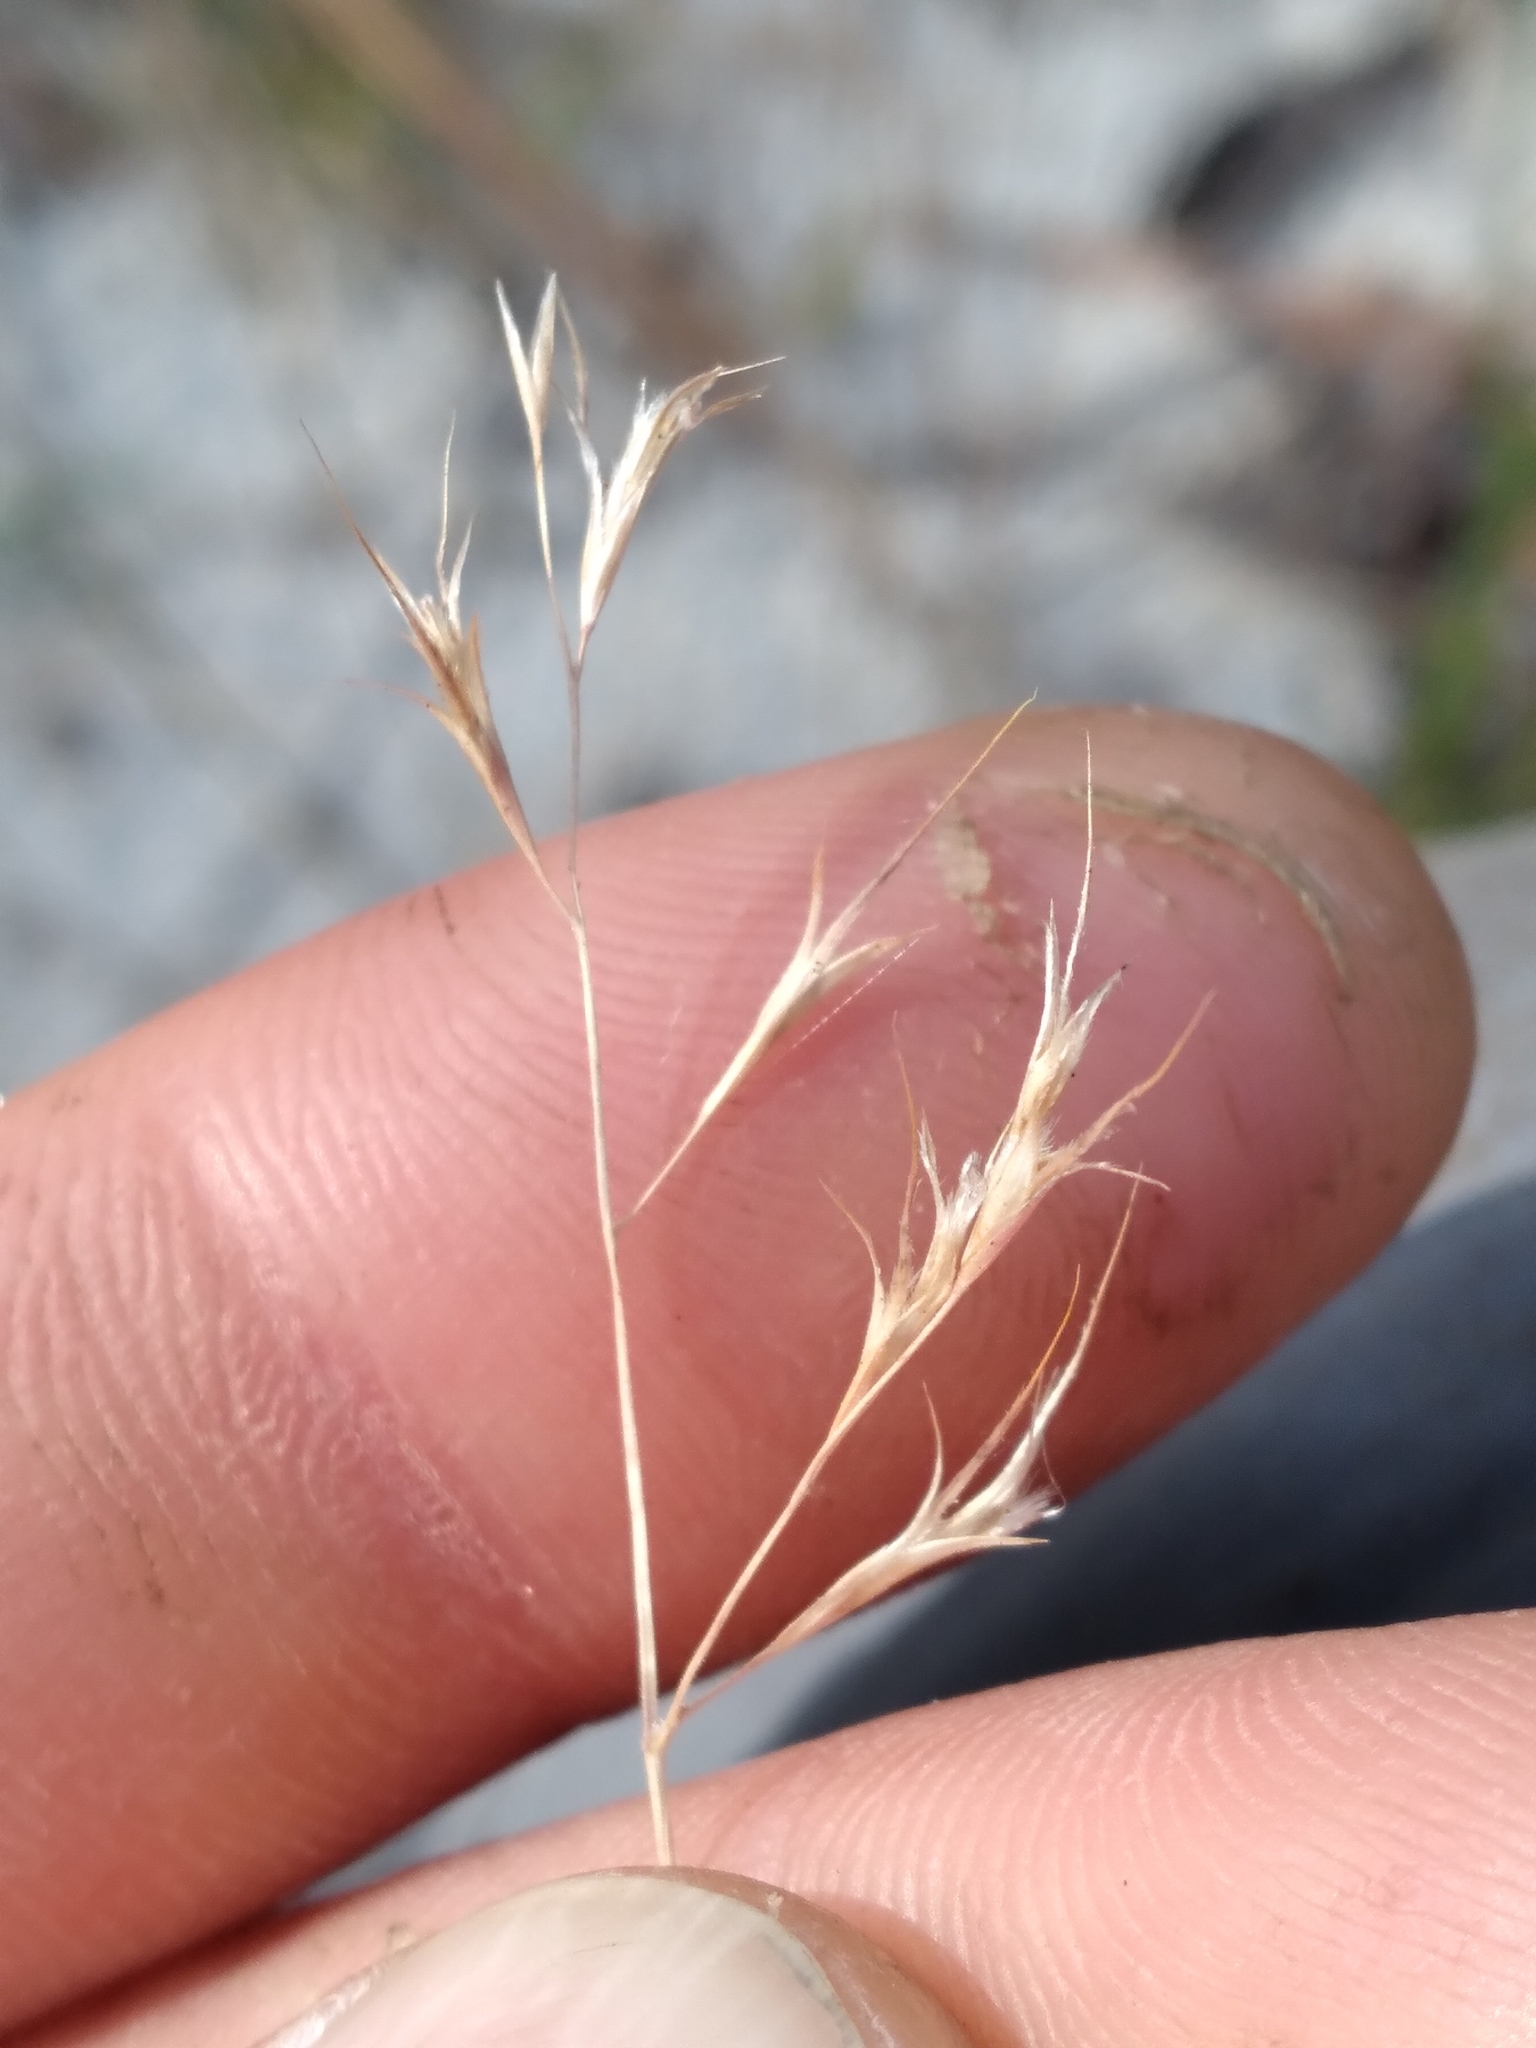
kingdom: Plantae
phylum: Tracheophyta
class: Liliopsida
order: Poales
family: Poaceae
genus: Triplasis
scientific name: Triplasis americana
